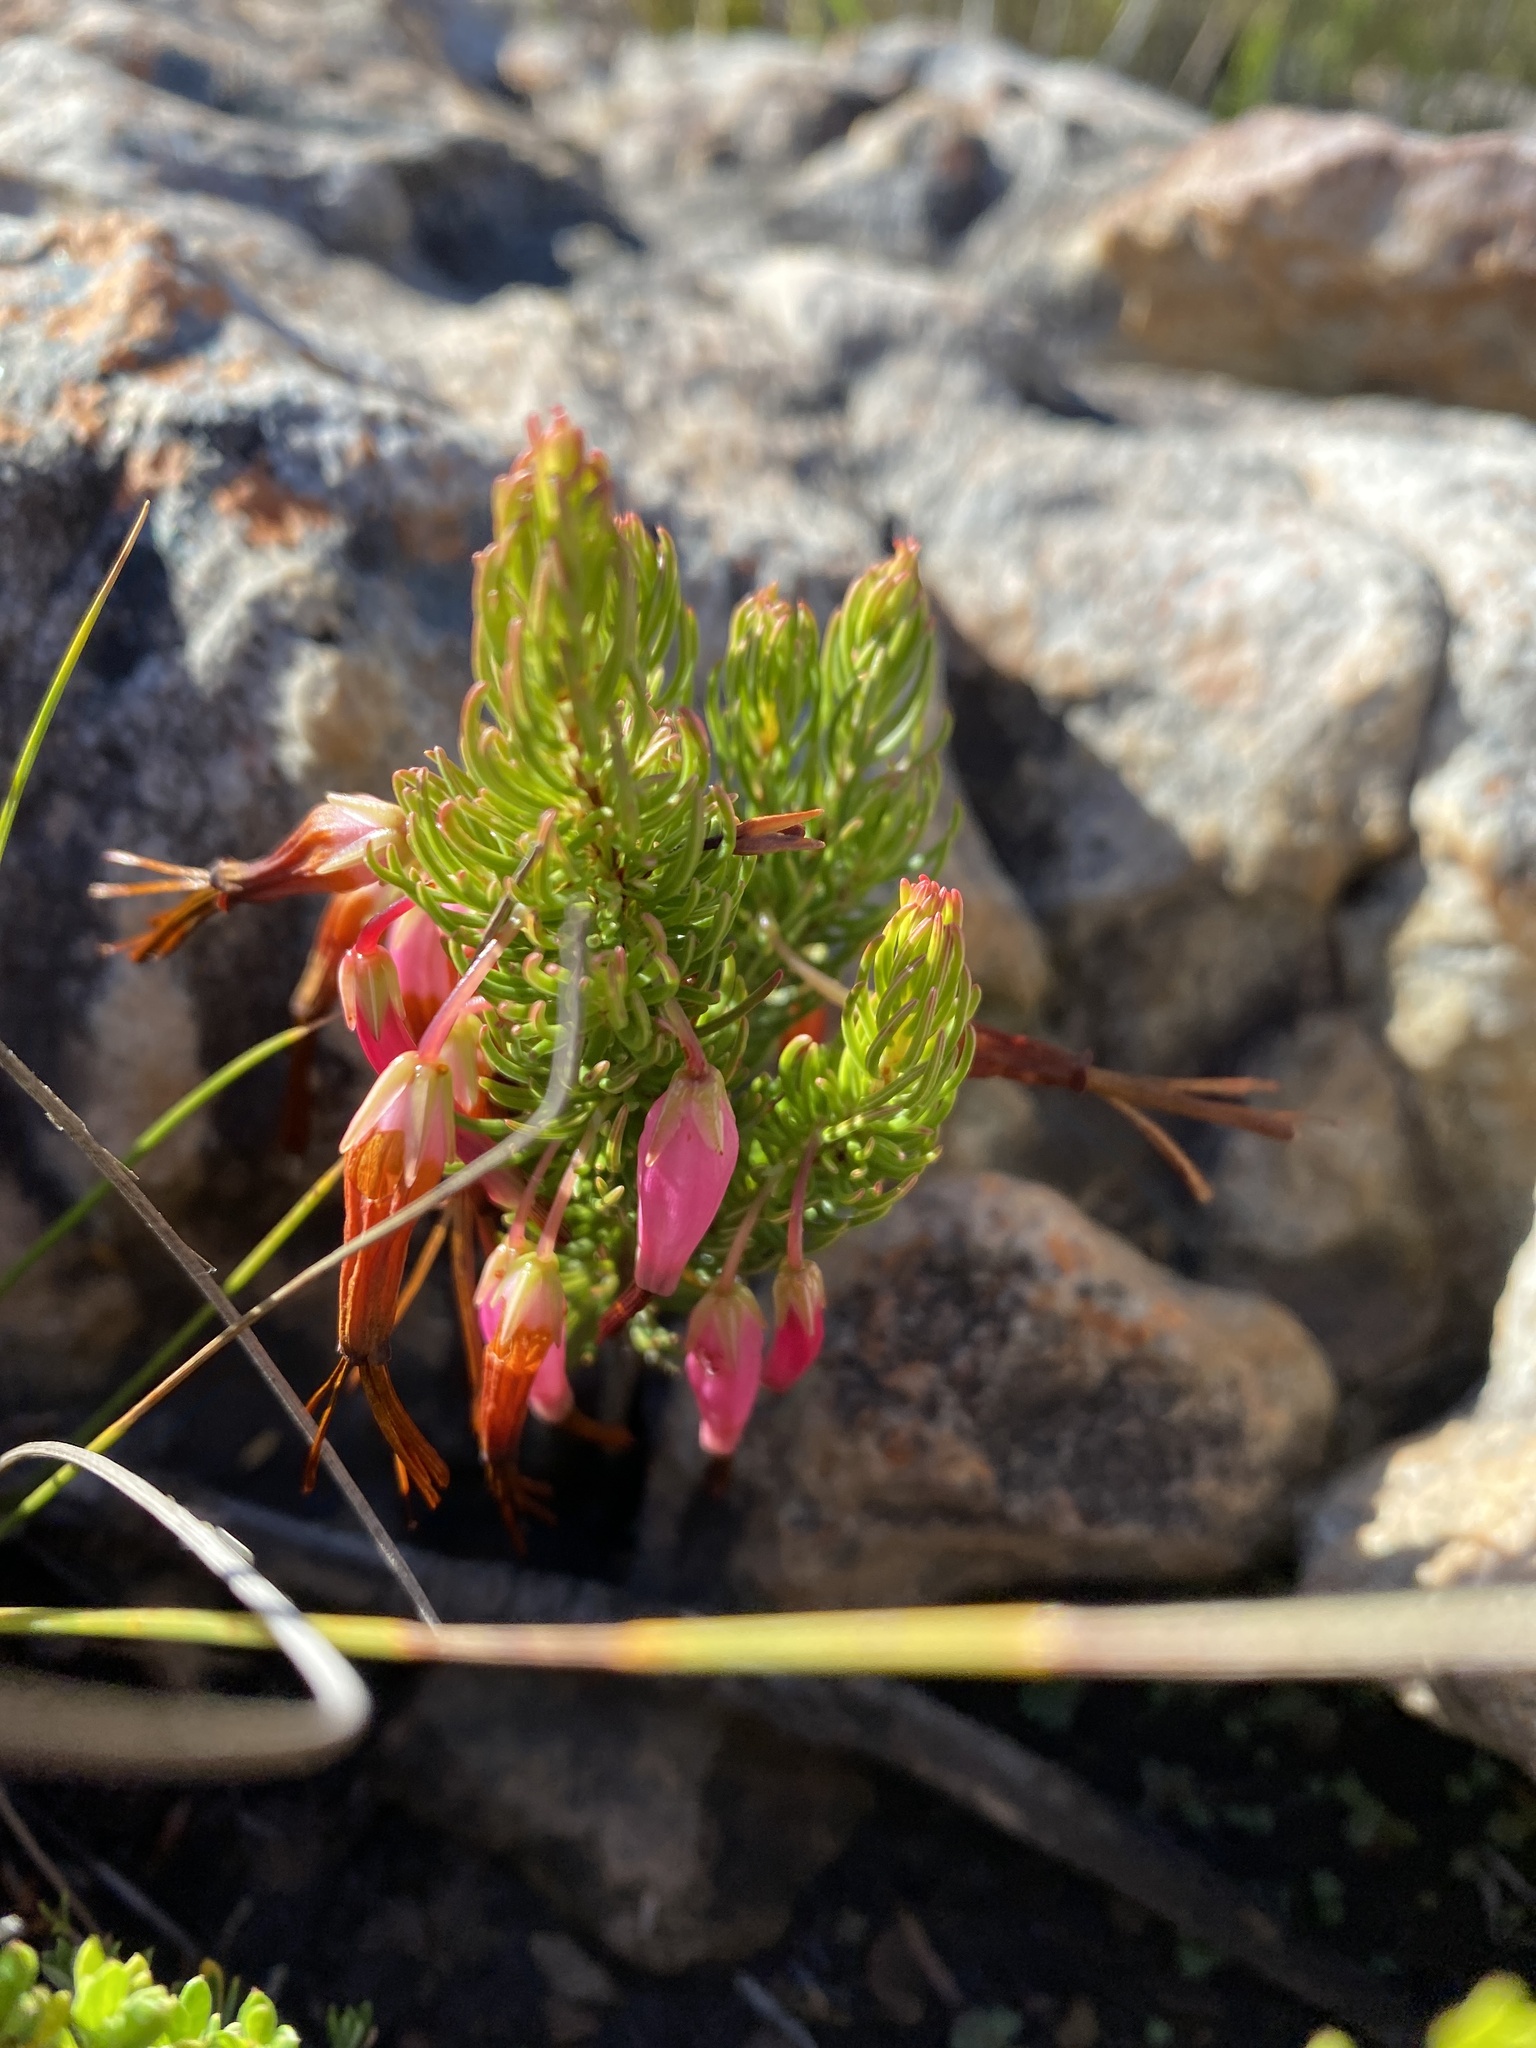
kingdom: Plantae
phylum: Tracheophyta
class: Magnoliopsida
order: Ericales
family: Ericaceae
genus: Erica
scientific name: Erica plukenetii
